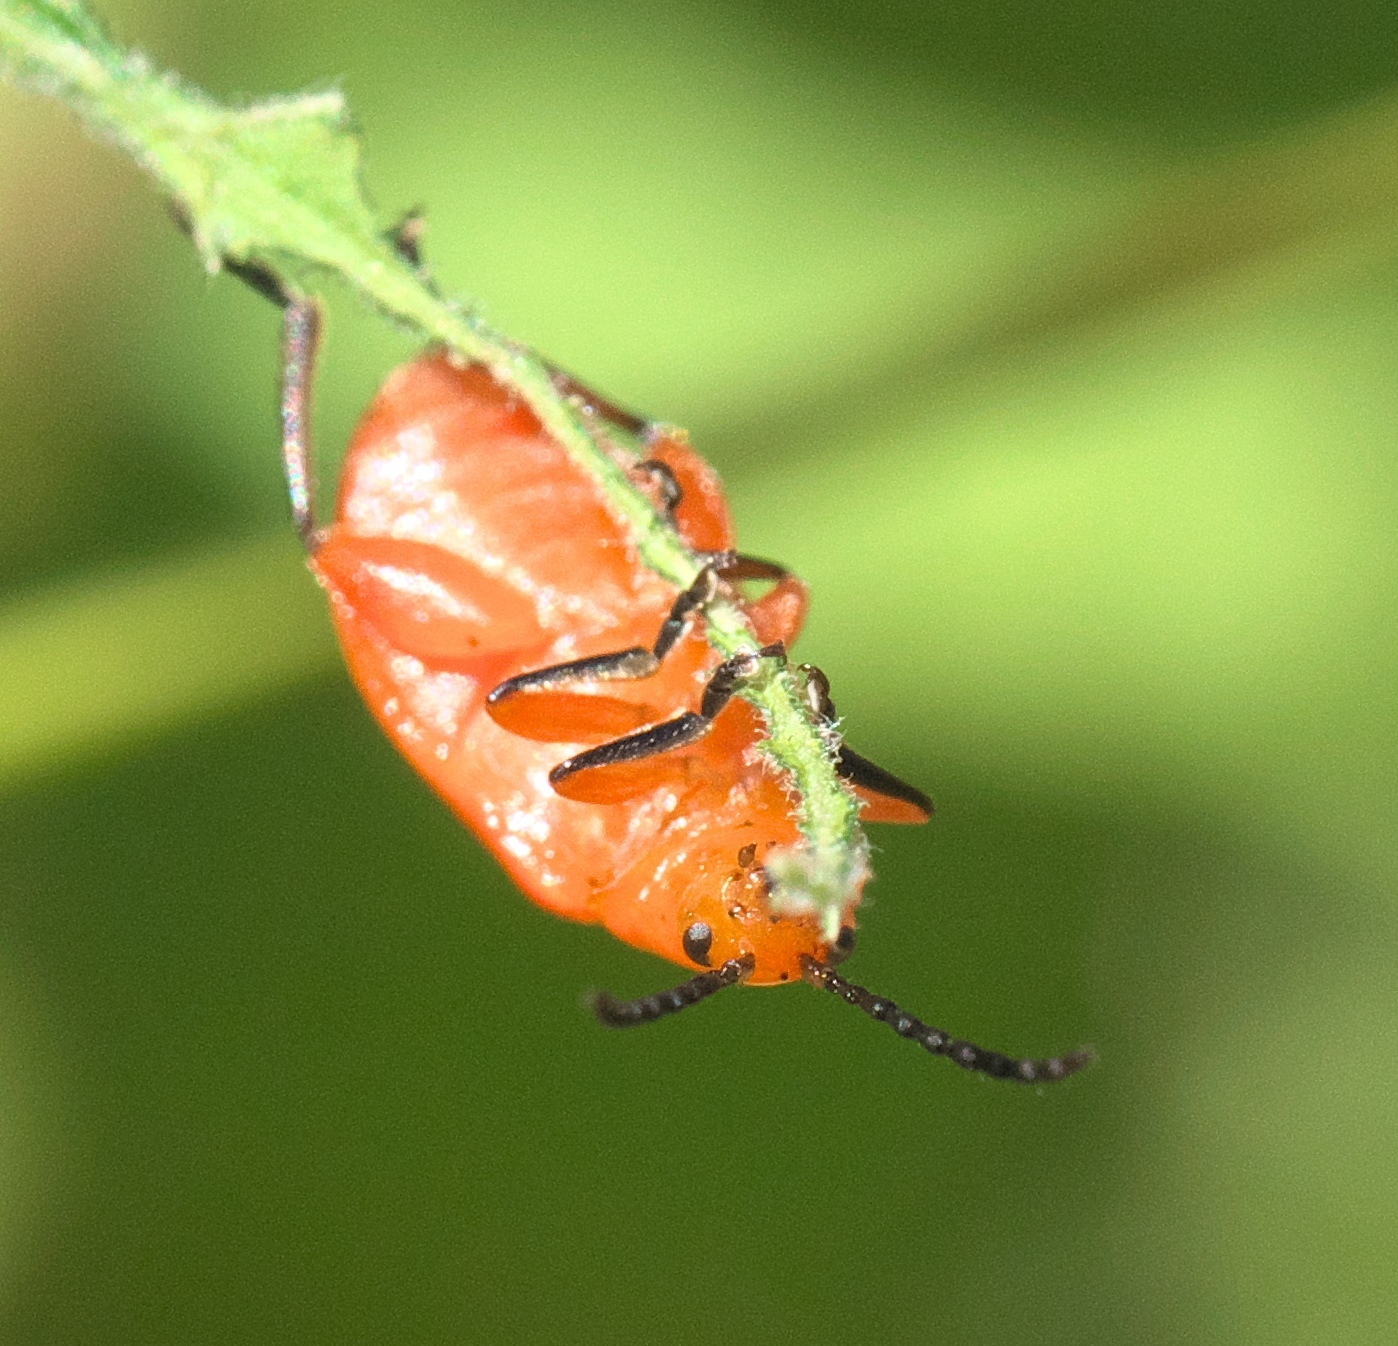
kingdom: Animalia
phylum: Arthropoda
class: Insecta
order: Coleoptera
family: Chrysomelidae
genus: Disonycha
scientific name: Disonycha discoidea
